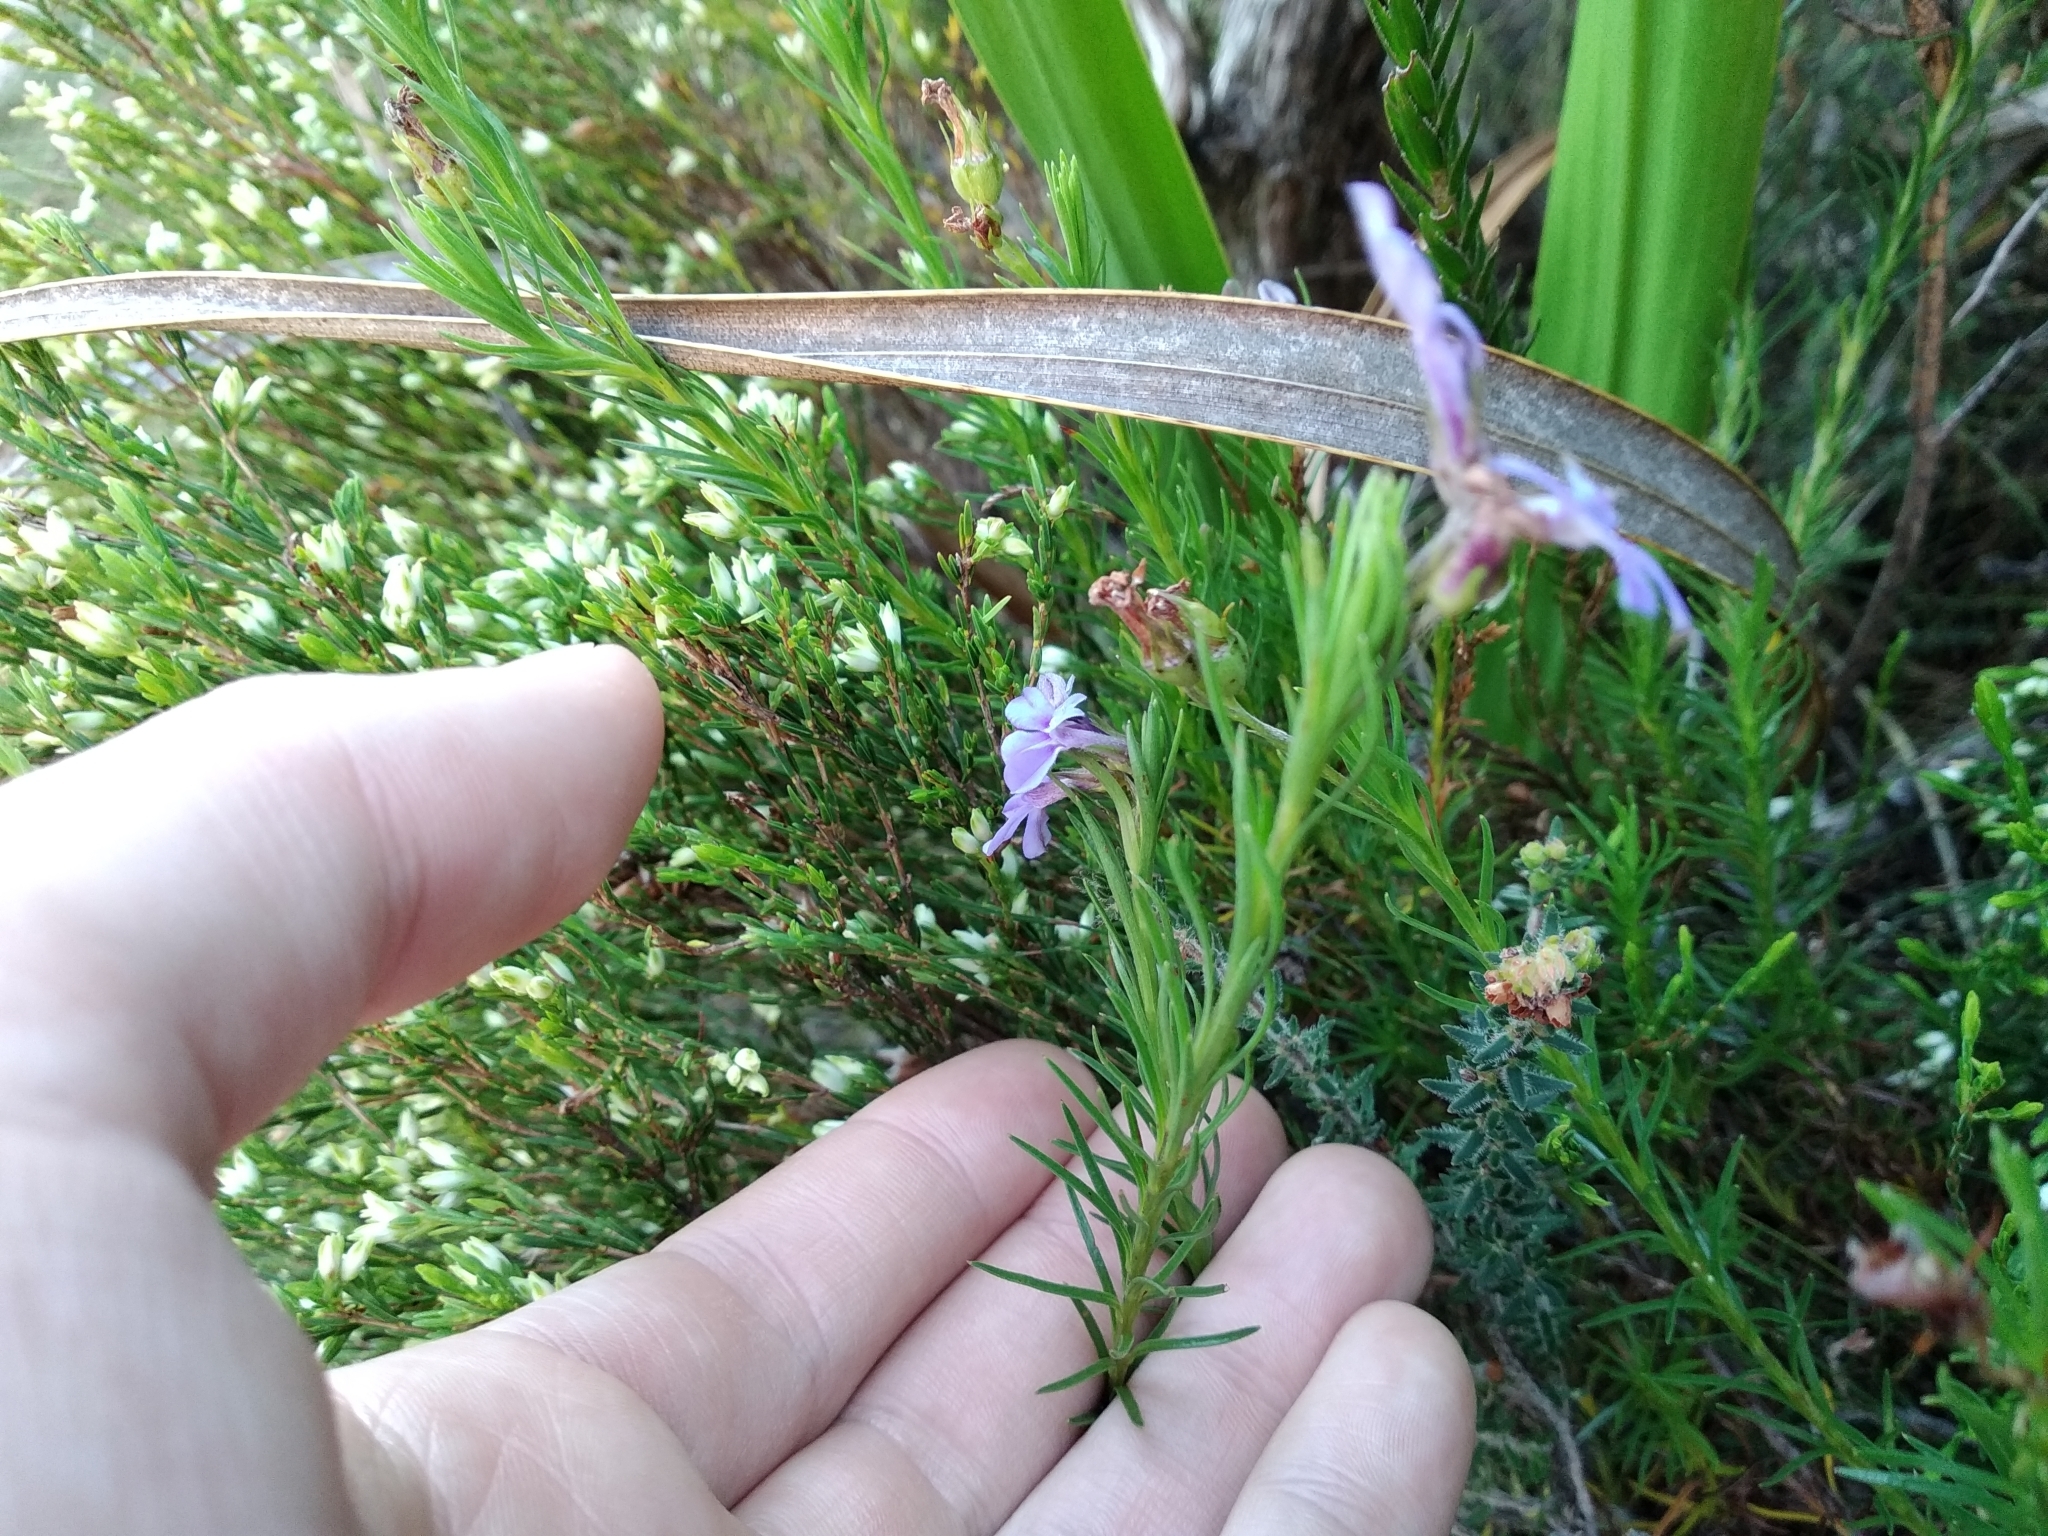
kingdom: Plantae
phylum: Tracheophyta
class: Magnoliopsida
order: Asterales
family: Campanulaceae
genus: Lobelia
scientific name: Lobelia pinifolia
